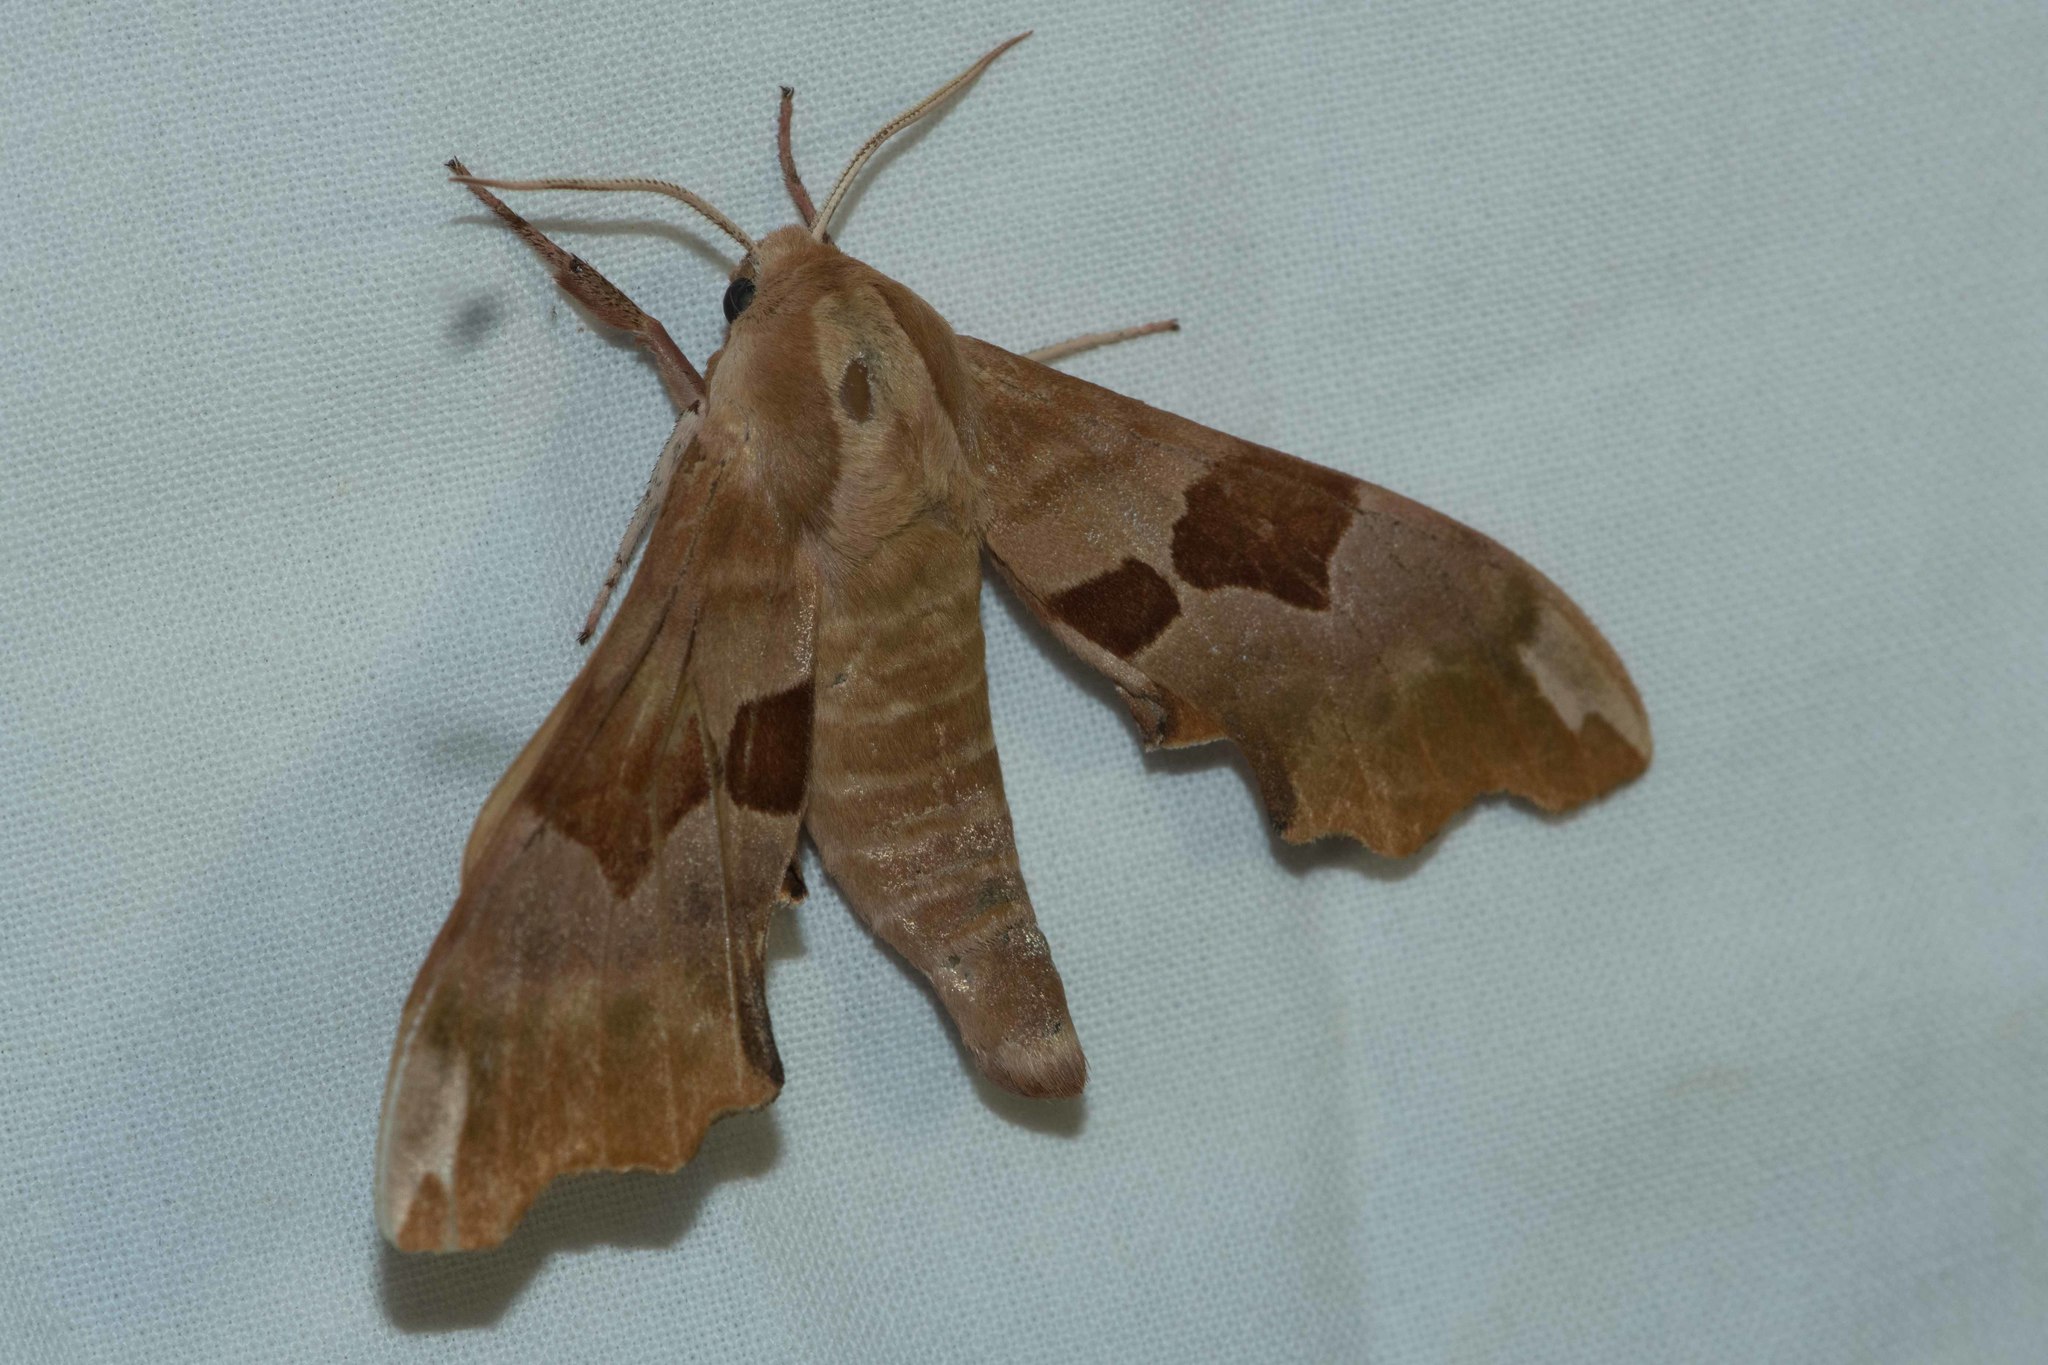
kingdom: Animalia
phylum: Arthropoda
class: Insecta
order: Lepidoptera
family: Sphingidae
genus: Mimas
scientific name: Mimas tiliae
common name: Lime hawk-moth
